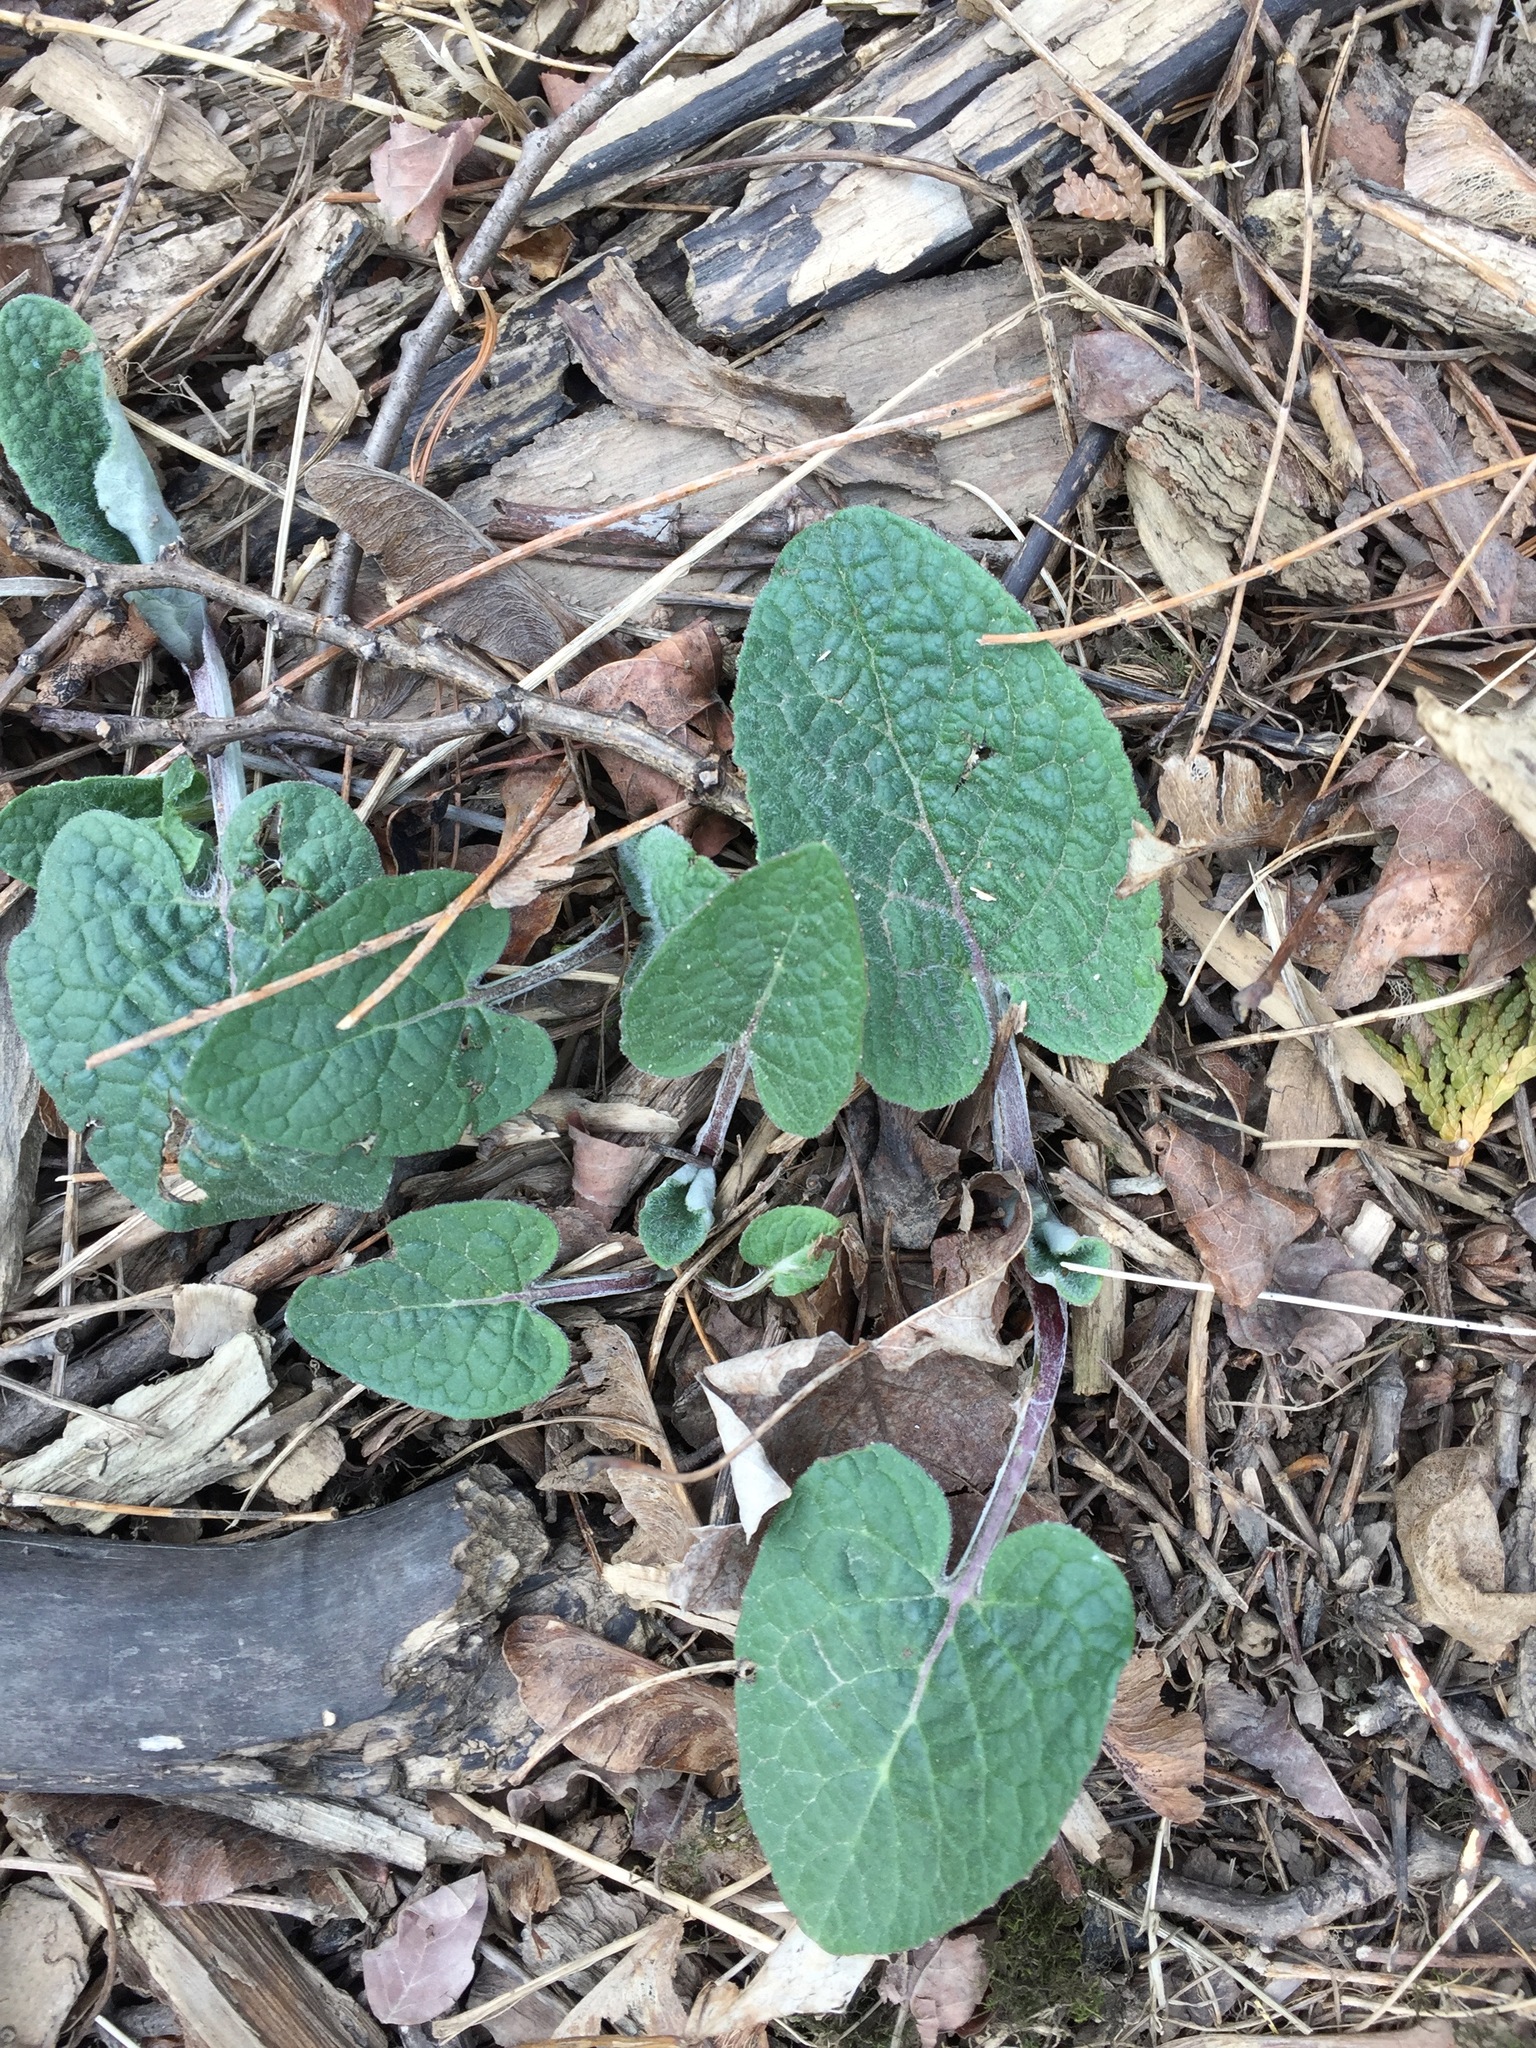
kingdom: Plantae
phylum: Tracheophyta
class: Magnoliopsida
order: Asterales
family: Asteraceae
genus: Arctium
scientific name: Arctium
